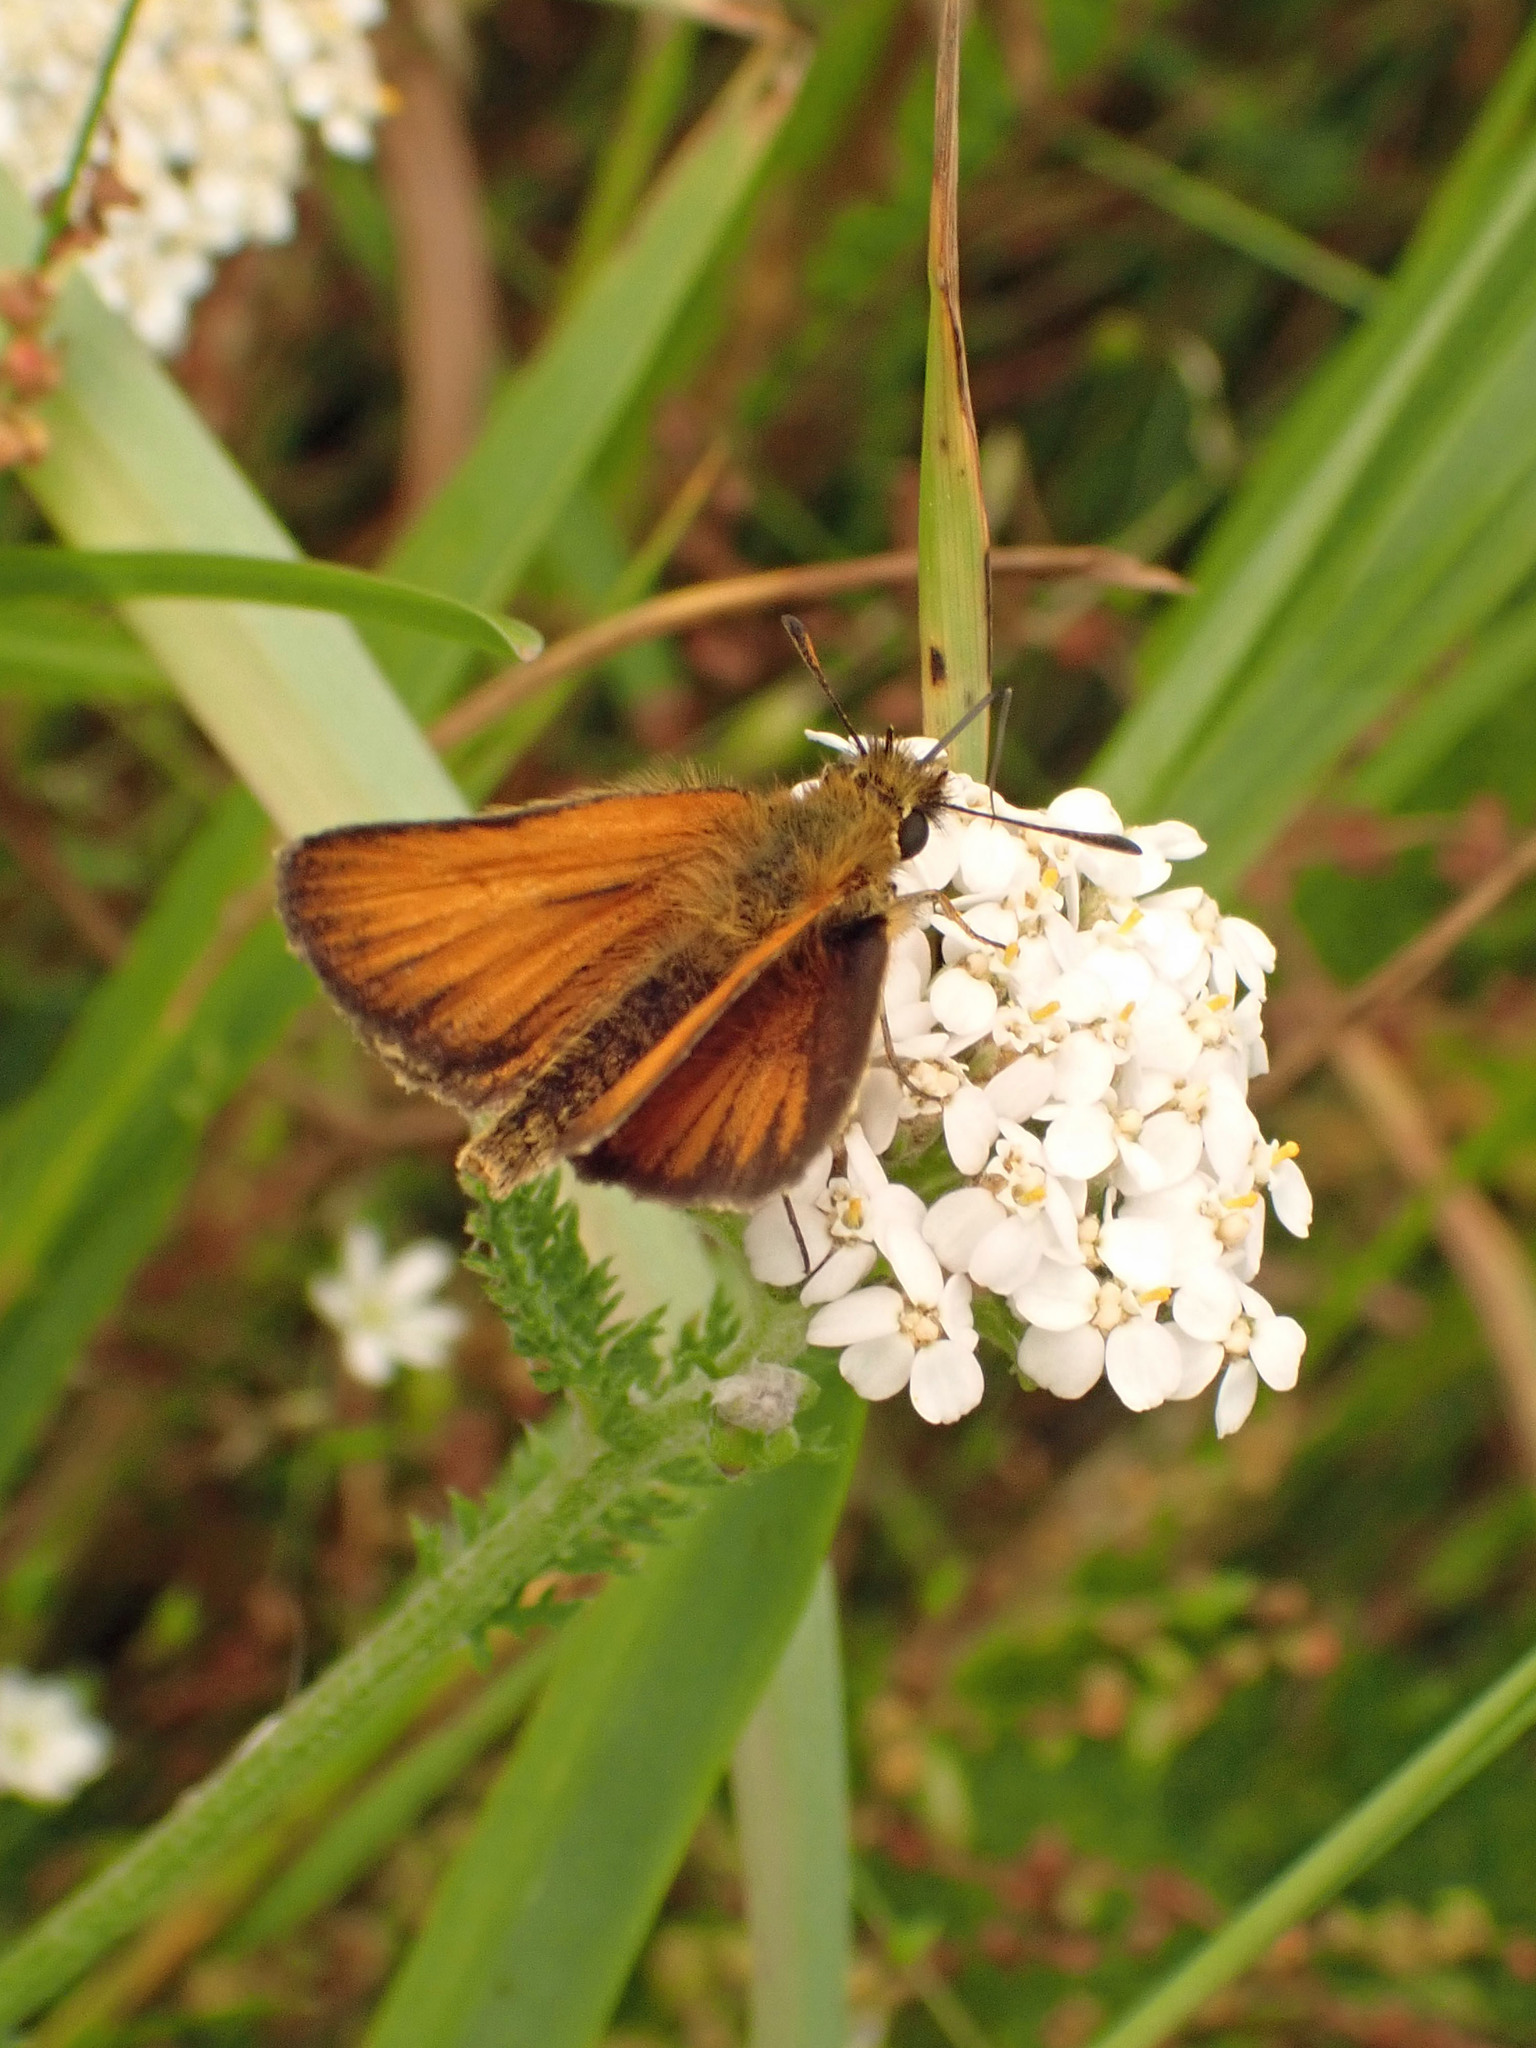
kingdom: Animalia
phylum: Arthropoda
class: Insecta
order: Lepidoptera
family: Hesperiidae
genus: Thymelicus
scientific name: Thymelicus lineola
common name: Essex skipper
